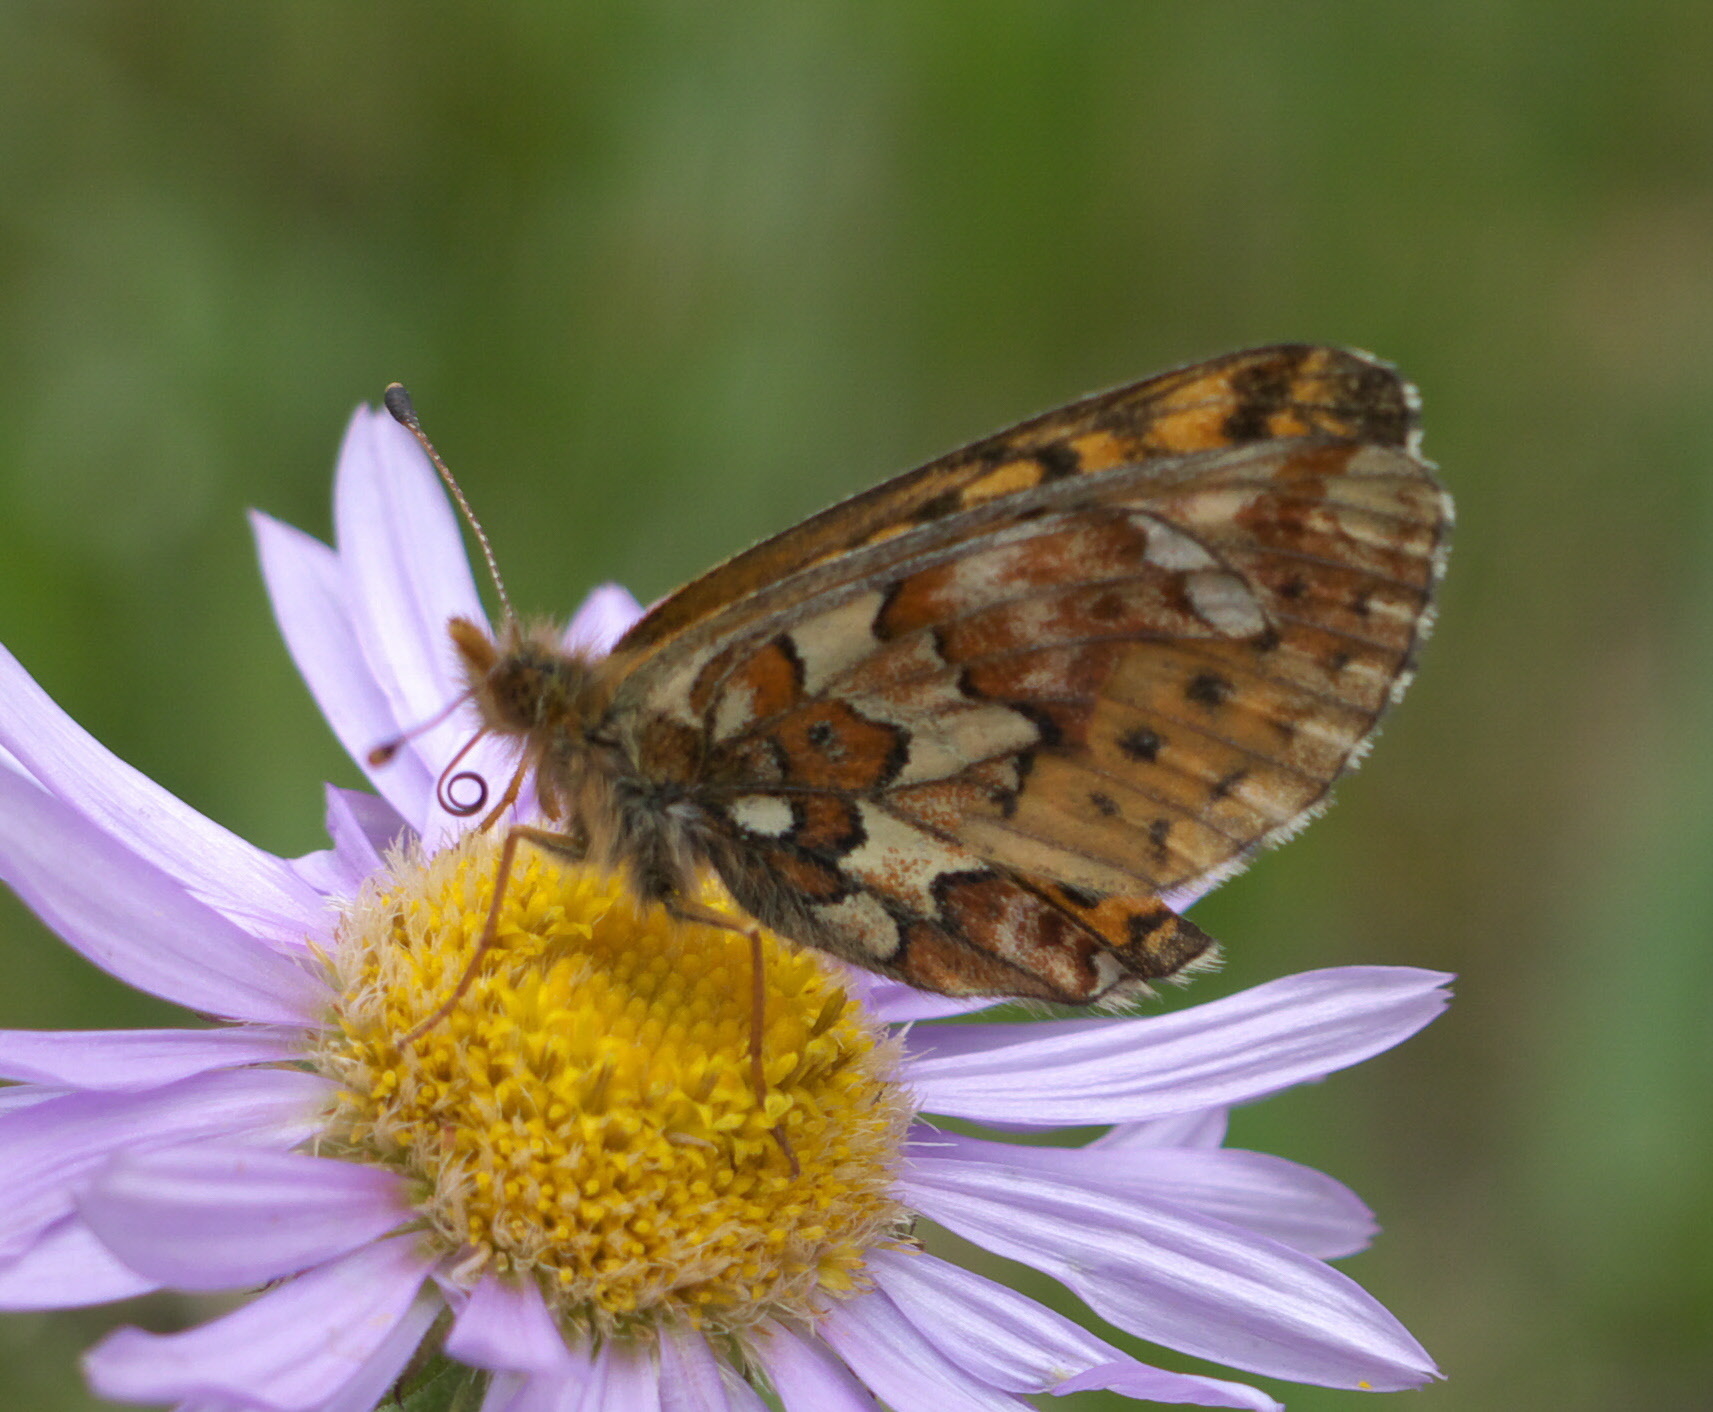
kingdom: Animalia
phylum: Arthropoda
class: Insecta
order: Lepidoptera
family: Nymphalidae
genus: Boloria
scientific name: Boloria chariclea
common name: Arctic fritillary
